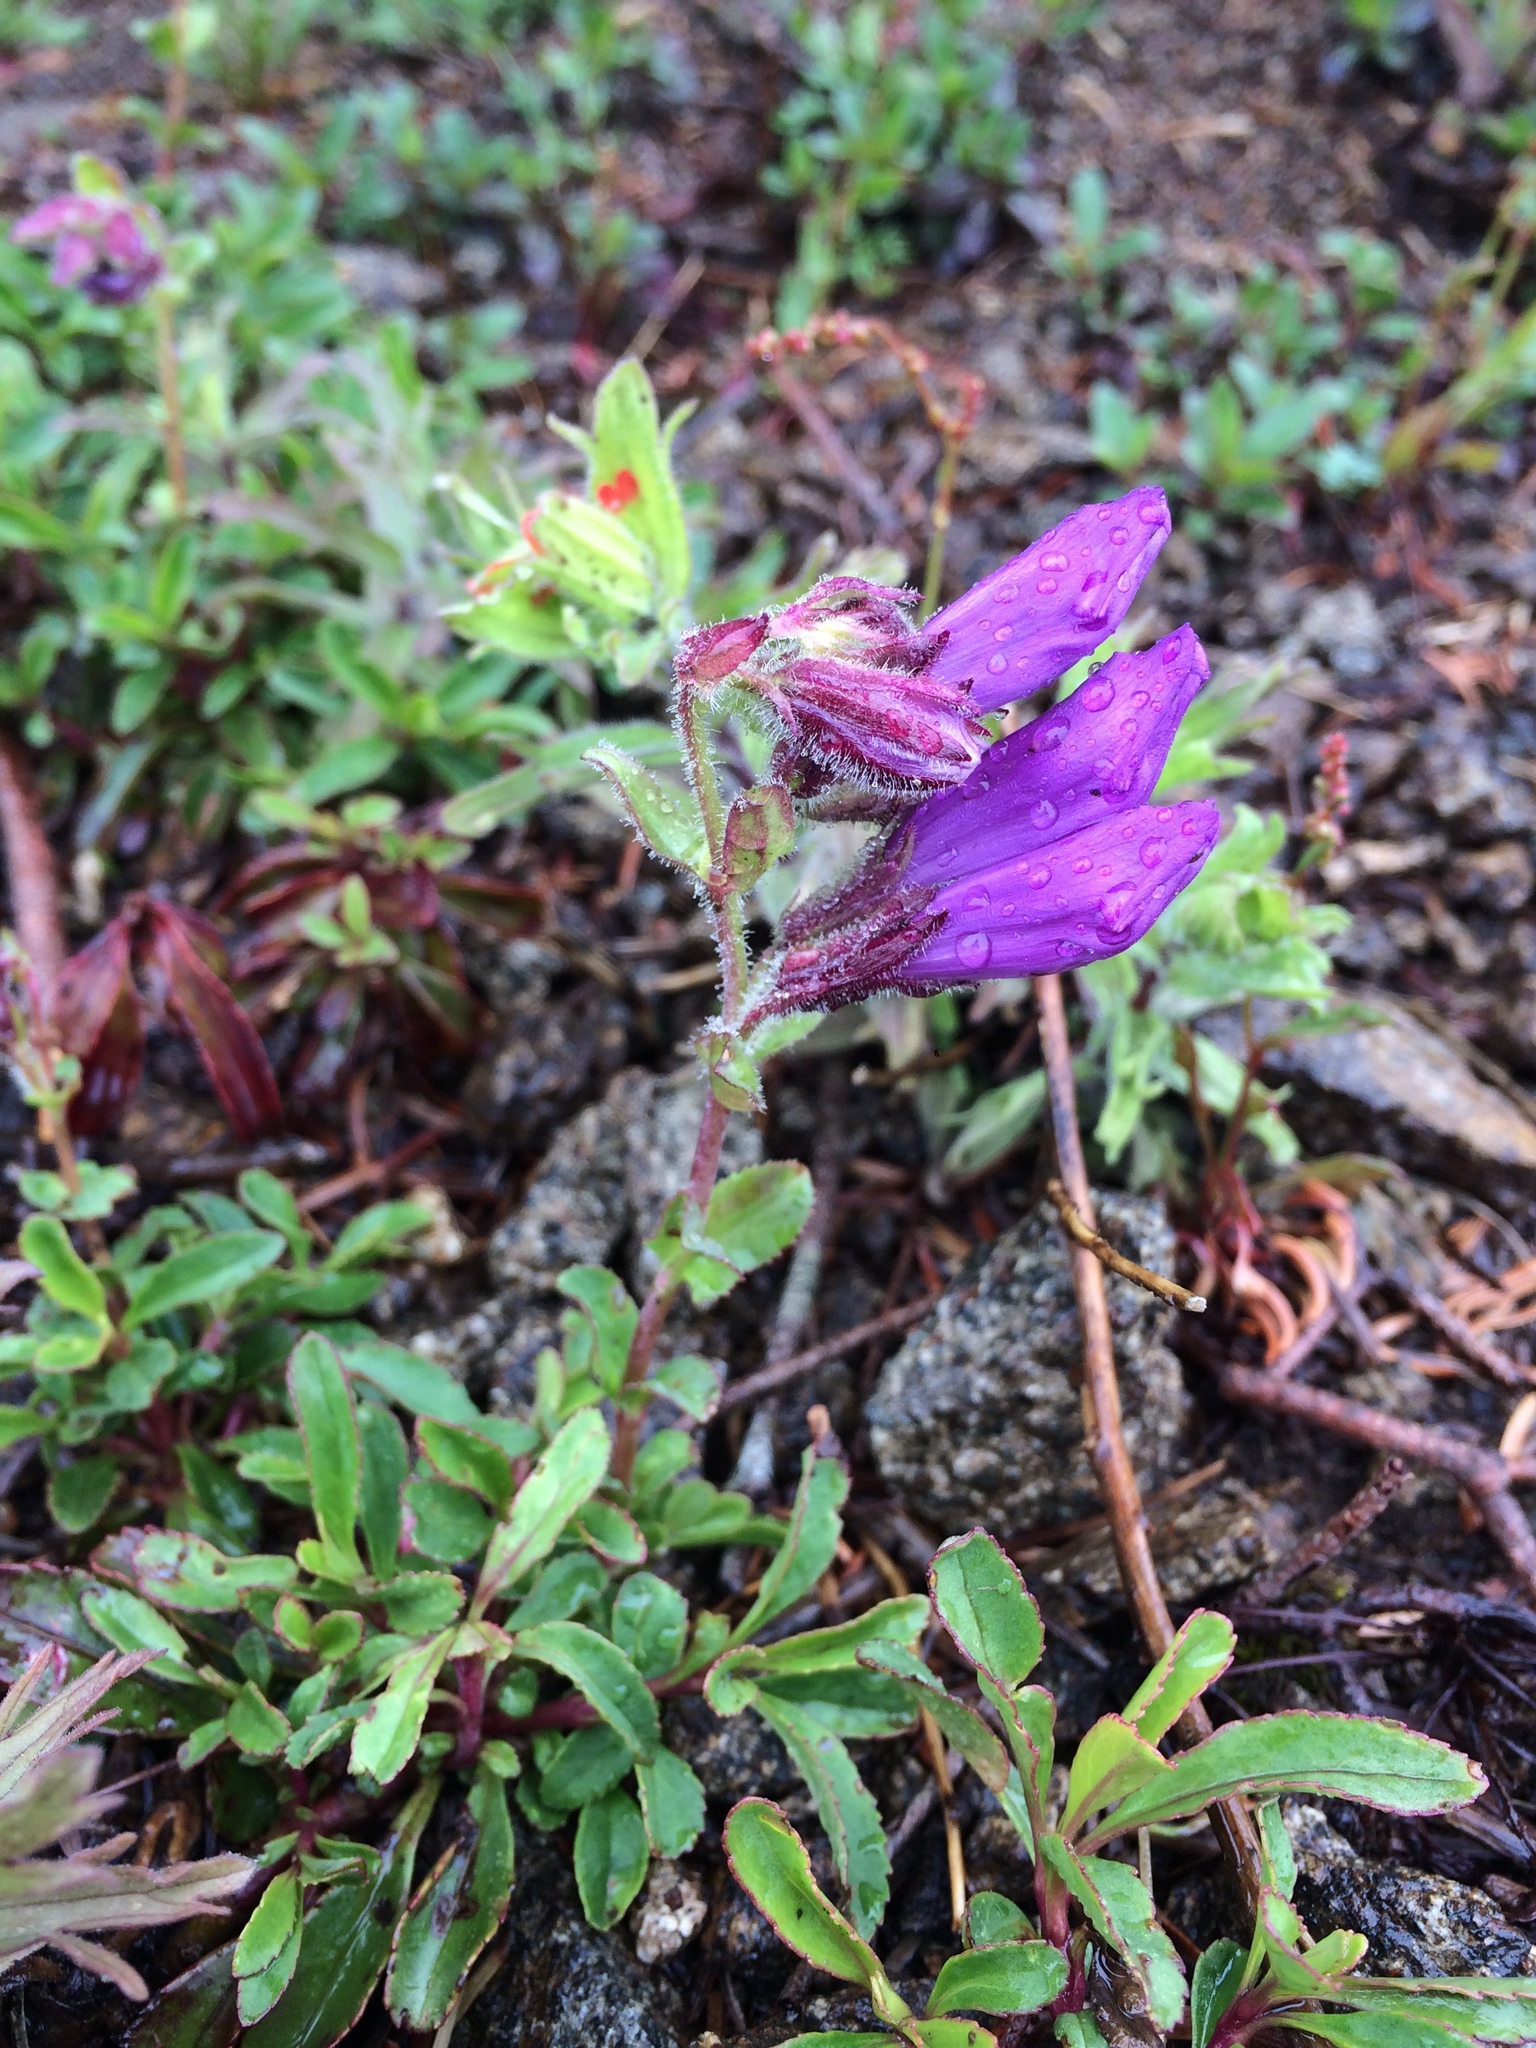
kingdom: Plantae
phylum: Tracheophyta
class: Magnoliopsida
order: Lamiales
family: Plantaginaceae
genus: Penstemon
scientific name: Penstemon cardwellii
